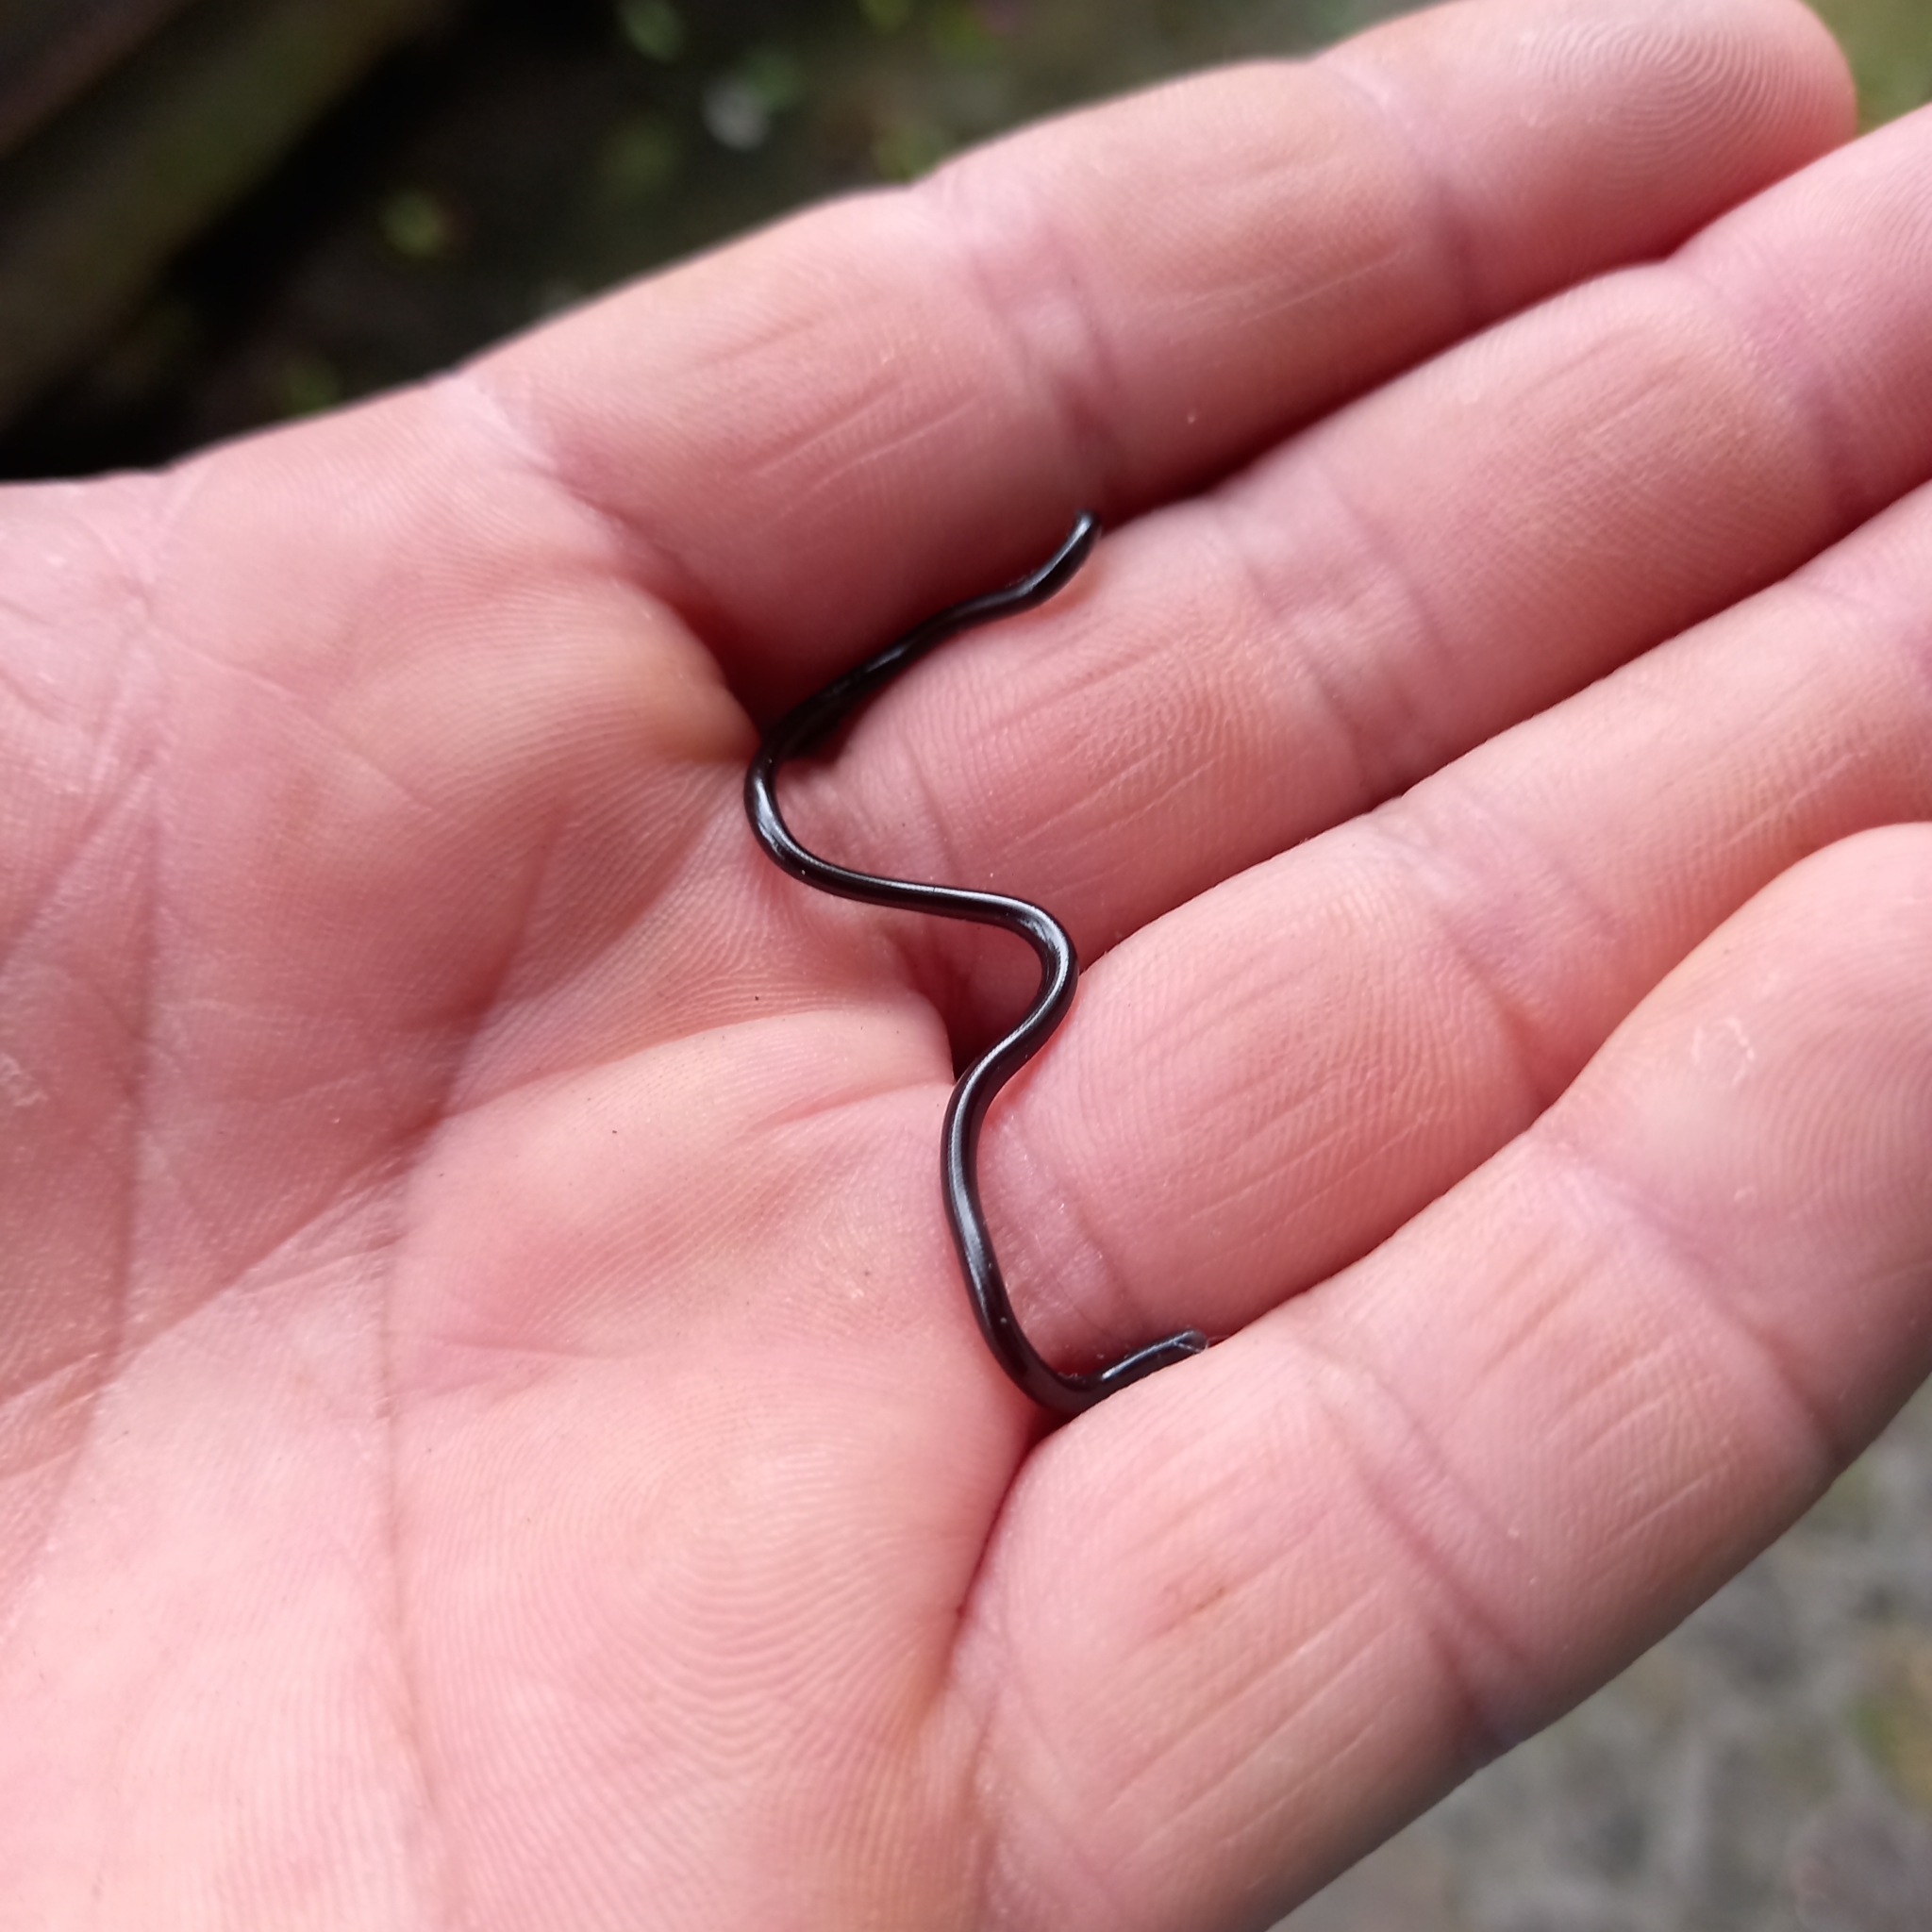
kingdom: Animalia
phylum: Chordata
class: Squamata
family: Typhlopidae
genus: Indotyphlops
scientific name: Indotyphlops braminus
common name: Brahminy blindsnake
